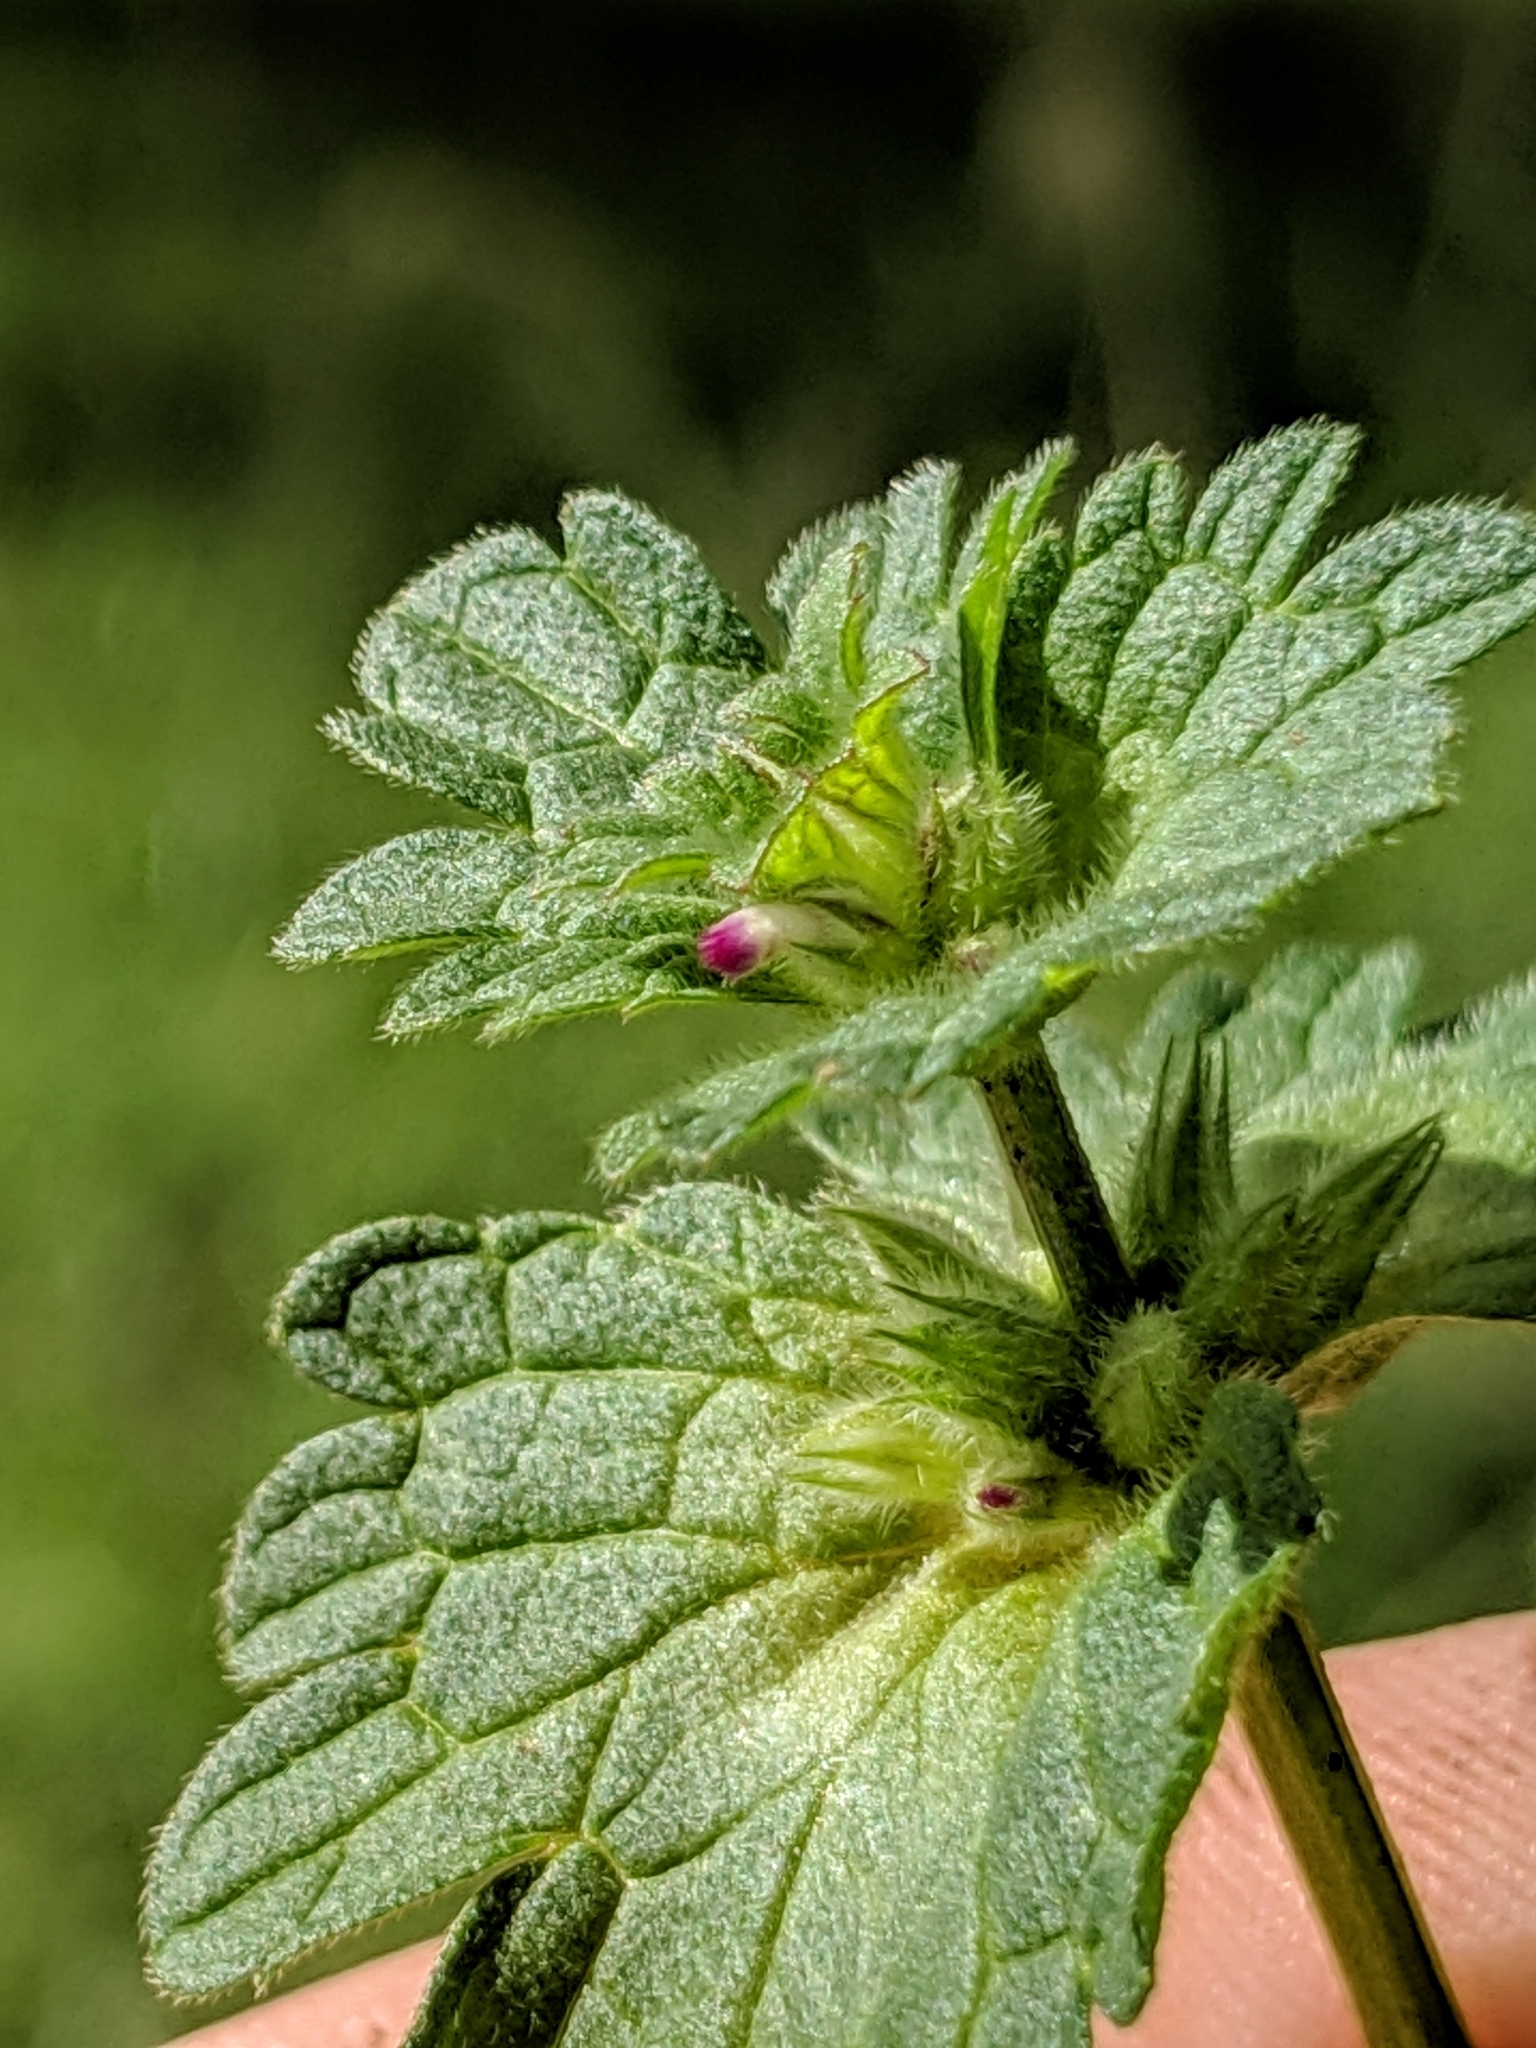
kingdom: Plantae
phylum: Tracheophyta
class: Magnoliopsida
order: Lamiales
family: Lamiaceae
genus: Lamium
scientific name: Lamium amplexicaule
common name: Henbit dead-nettle
